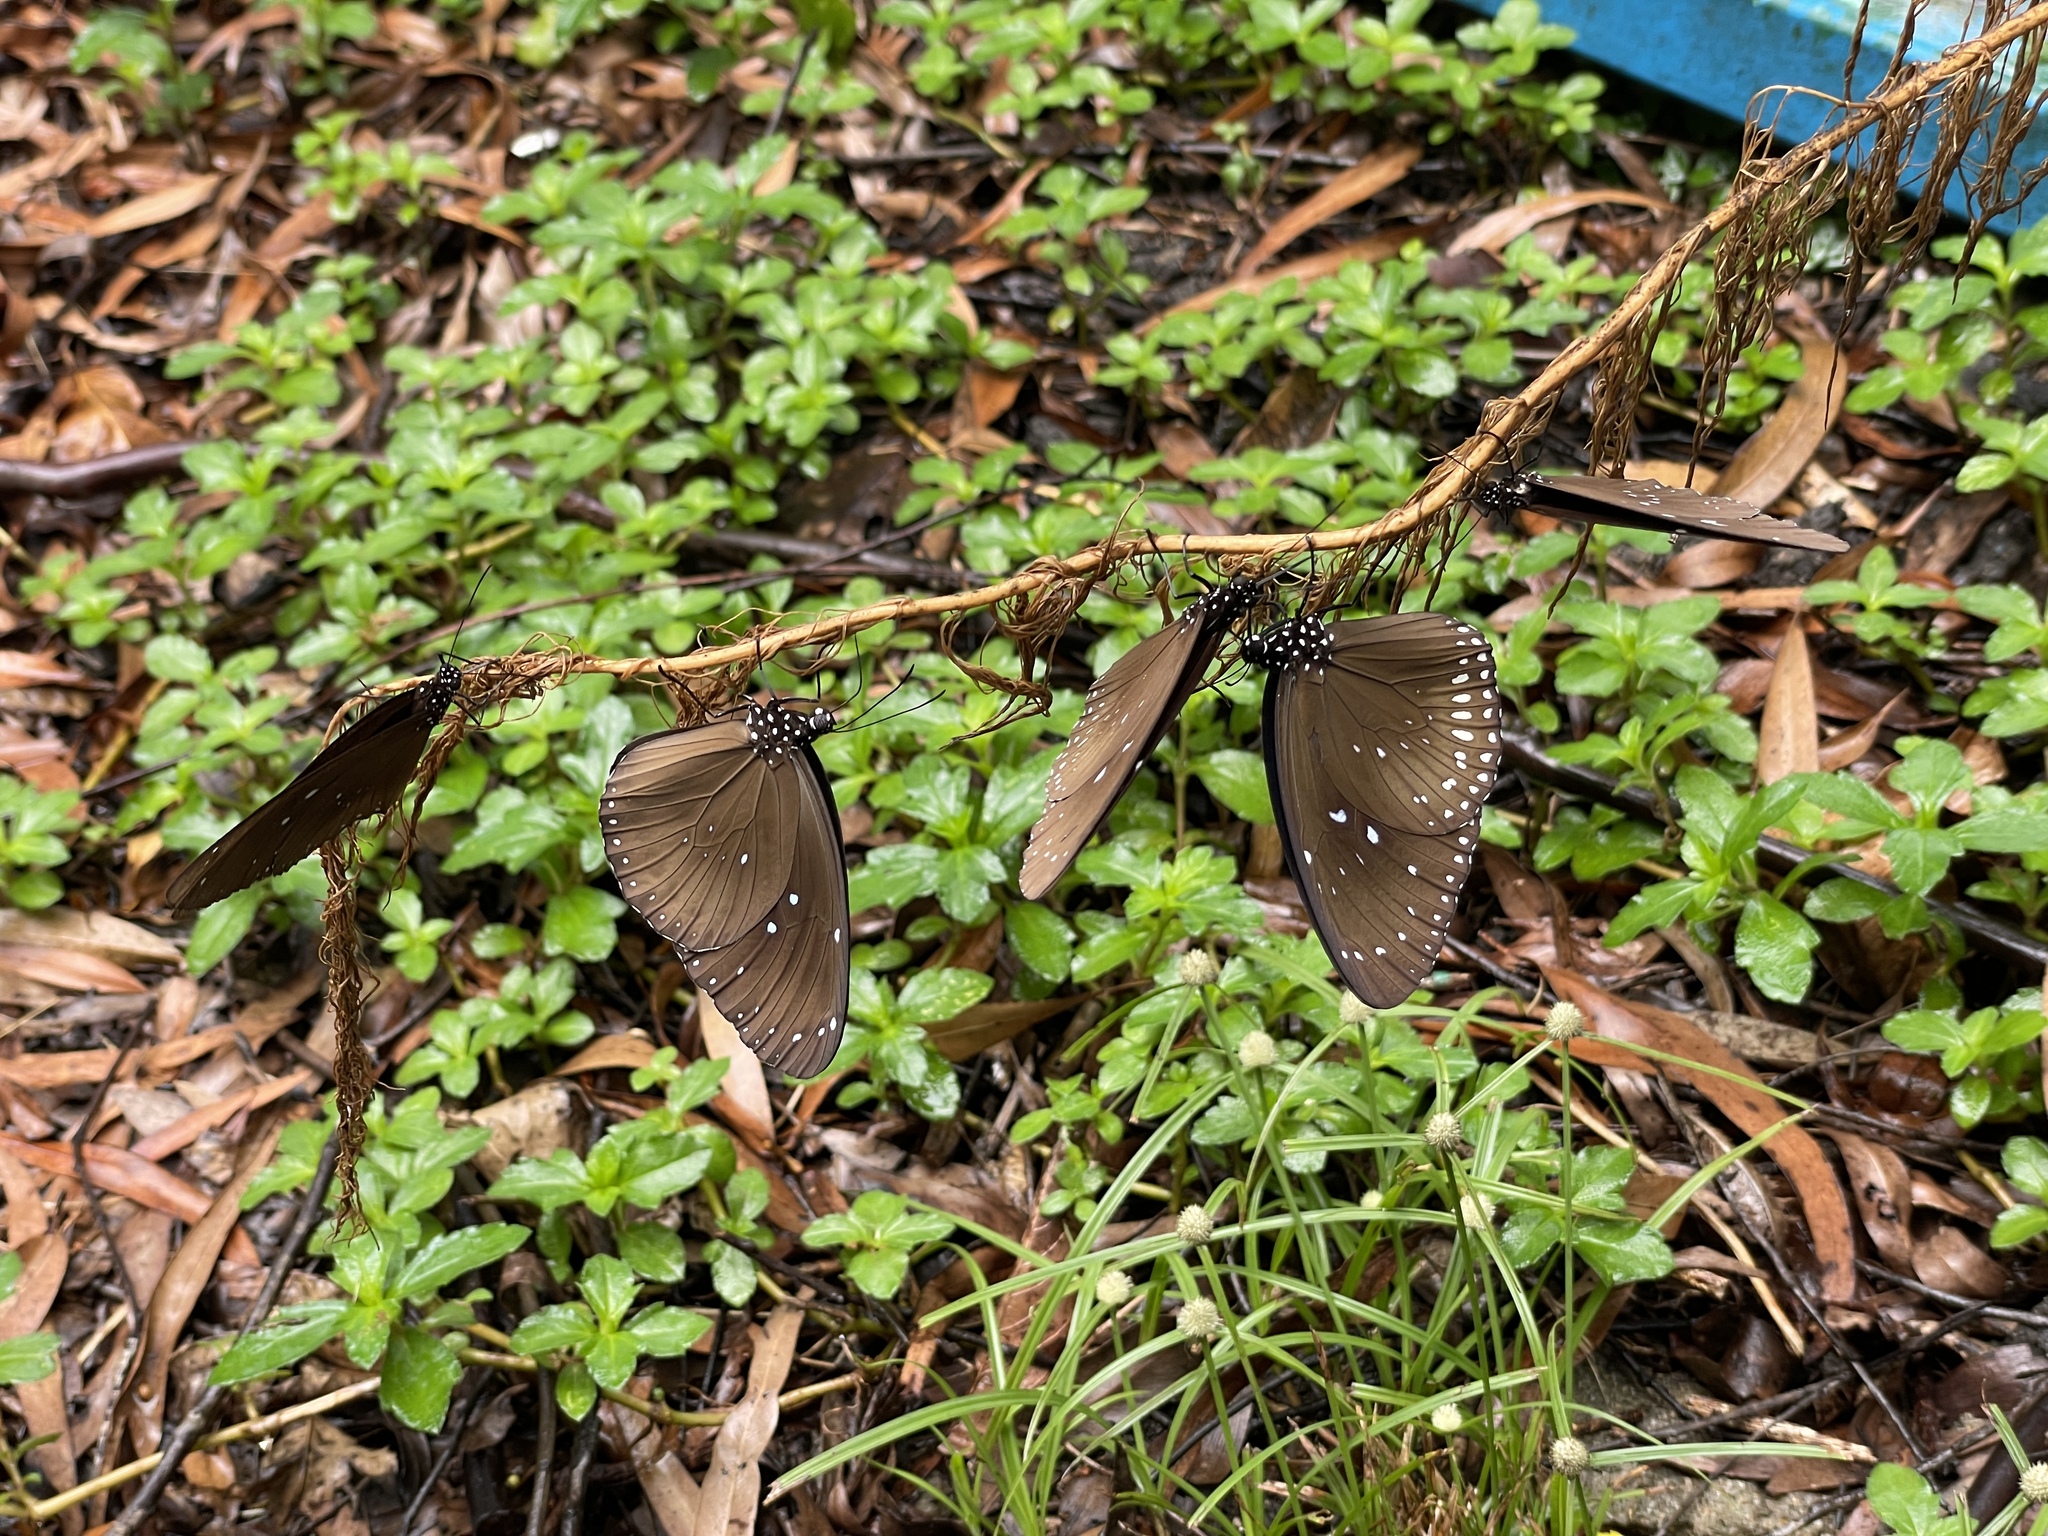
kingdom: Animalia
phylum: Arthropoda
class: Insecta
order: Lepidoptera
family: Nymphalidae
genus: Euploea
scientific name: Euploea midamus
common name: Blue-spotted crow butterfly
